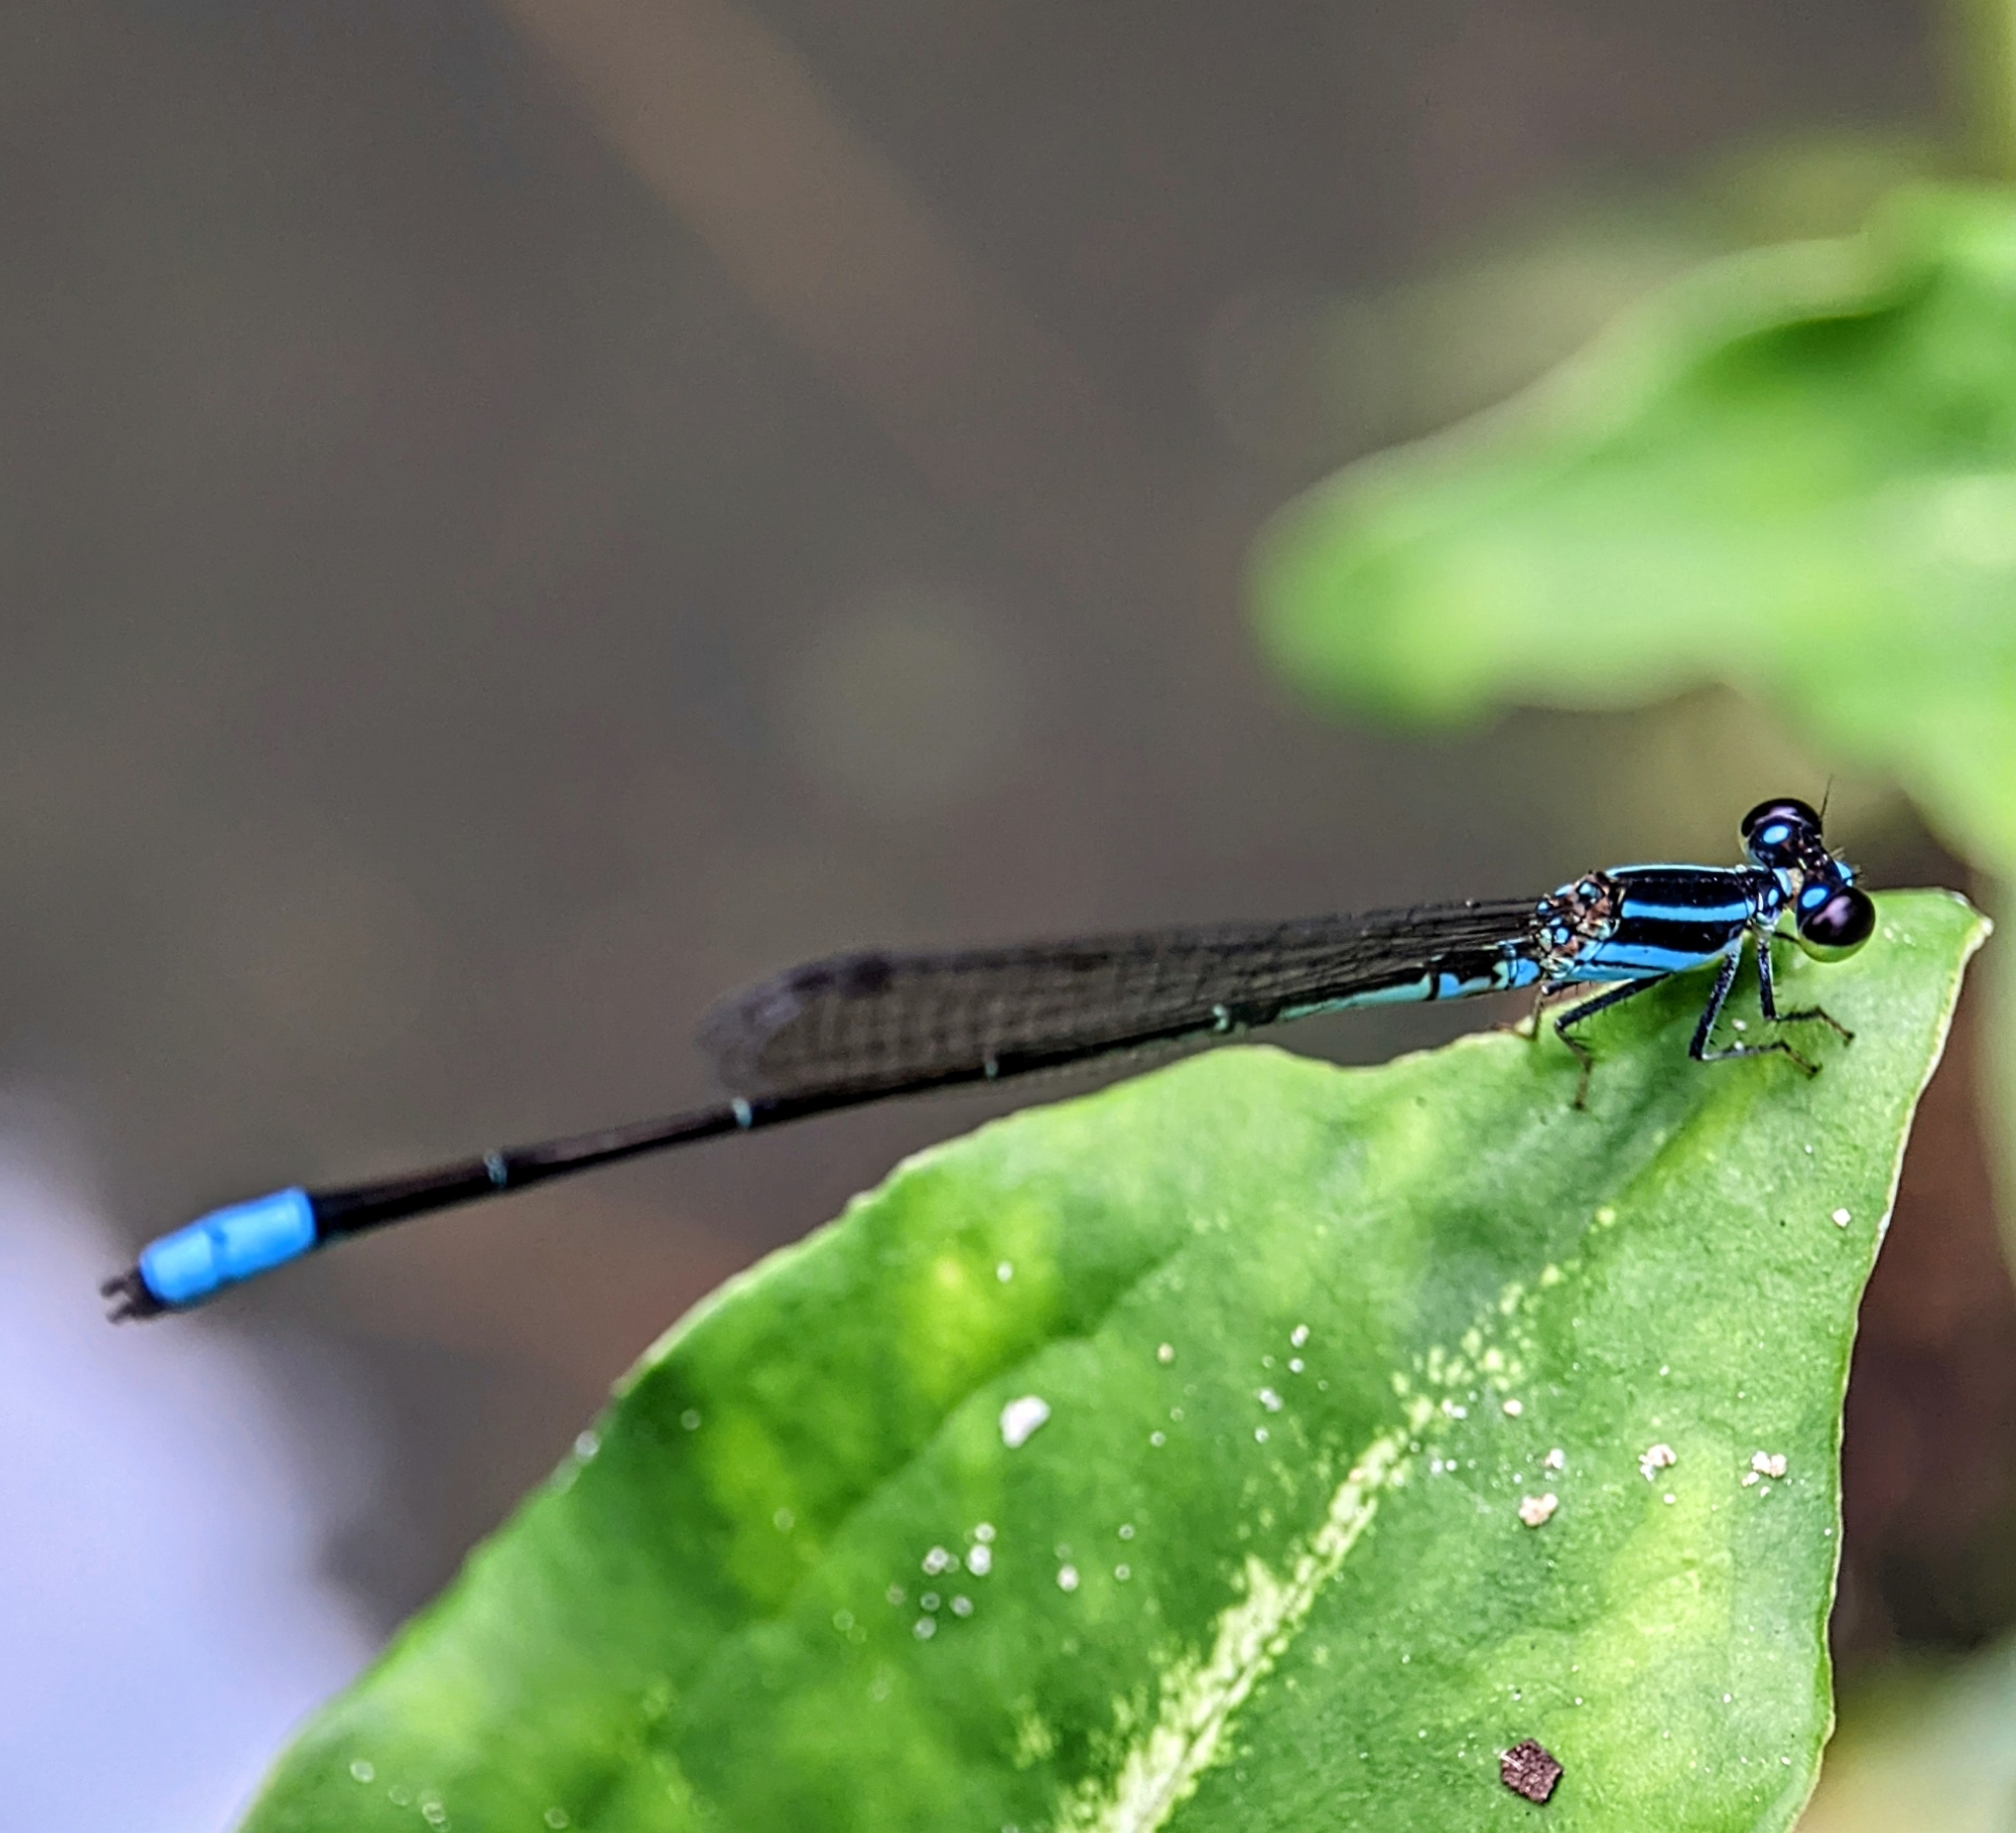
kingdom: Animalia
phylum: Arthropoda
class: Insecta
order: Odonata
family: Coenagrionidae
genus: Argiocnemis
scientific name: Argiocnemis rubescens
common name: Red-tipped shadefly
